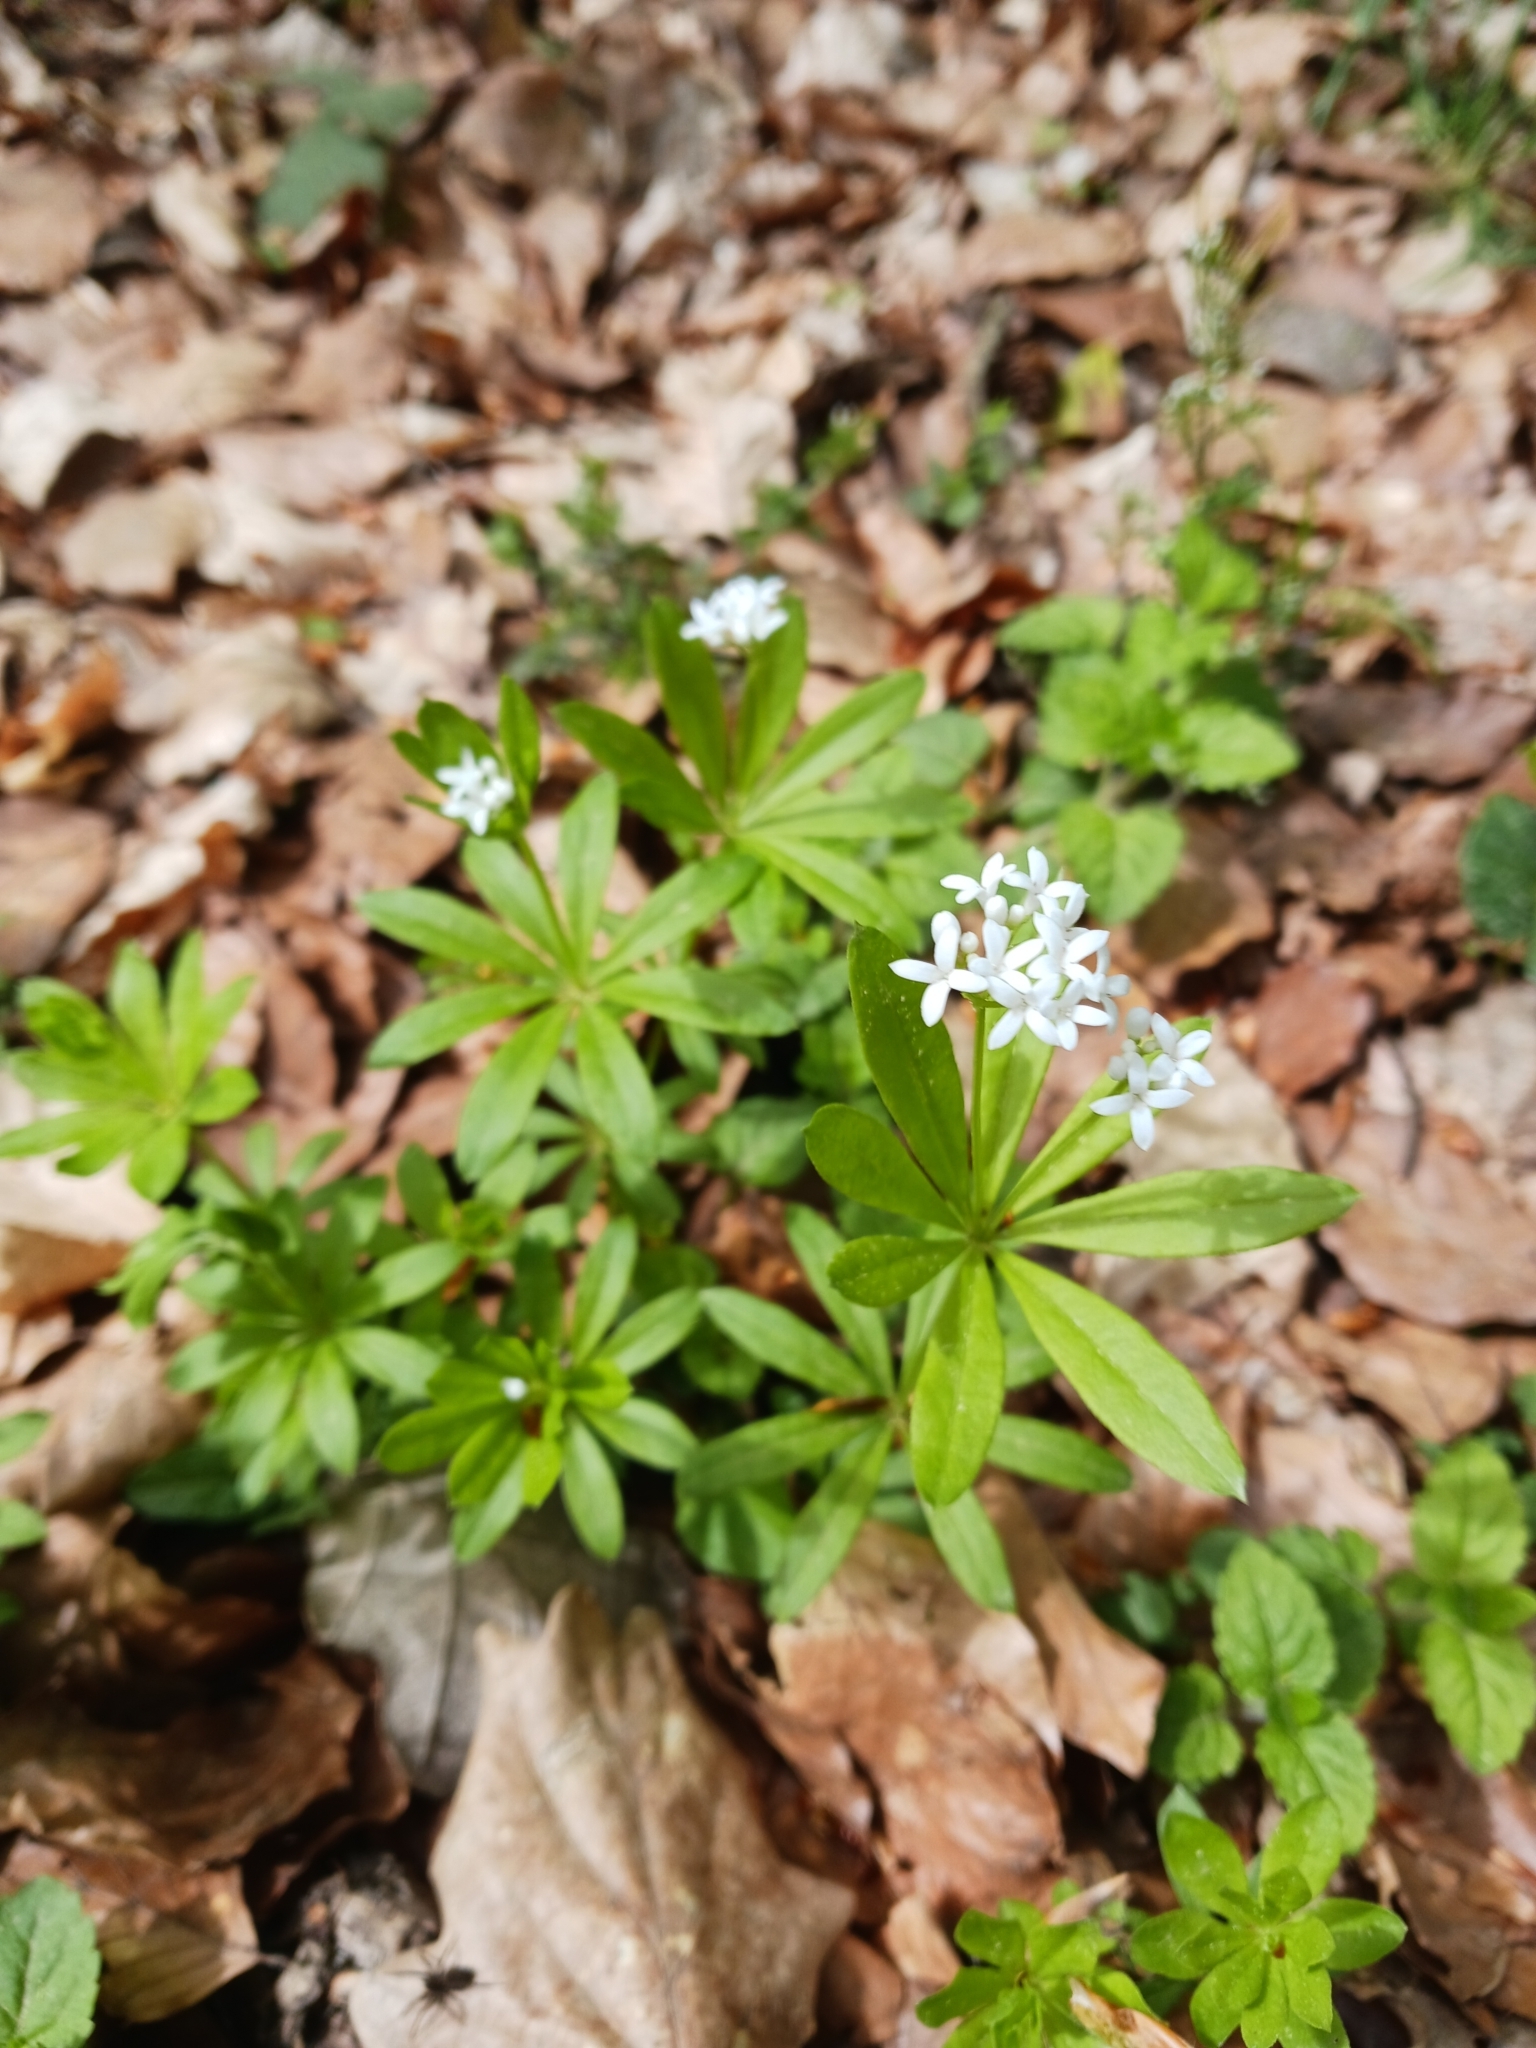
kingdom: Plantae
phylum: Tracheophyta
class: Magnoliopsida
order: Gentianales
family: Rubiaceae
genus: Galium
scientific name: Galium odoratum
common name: Sweet woodruff
